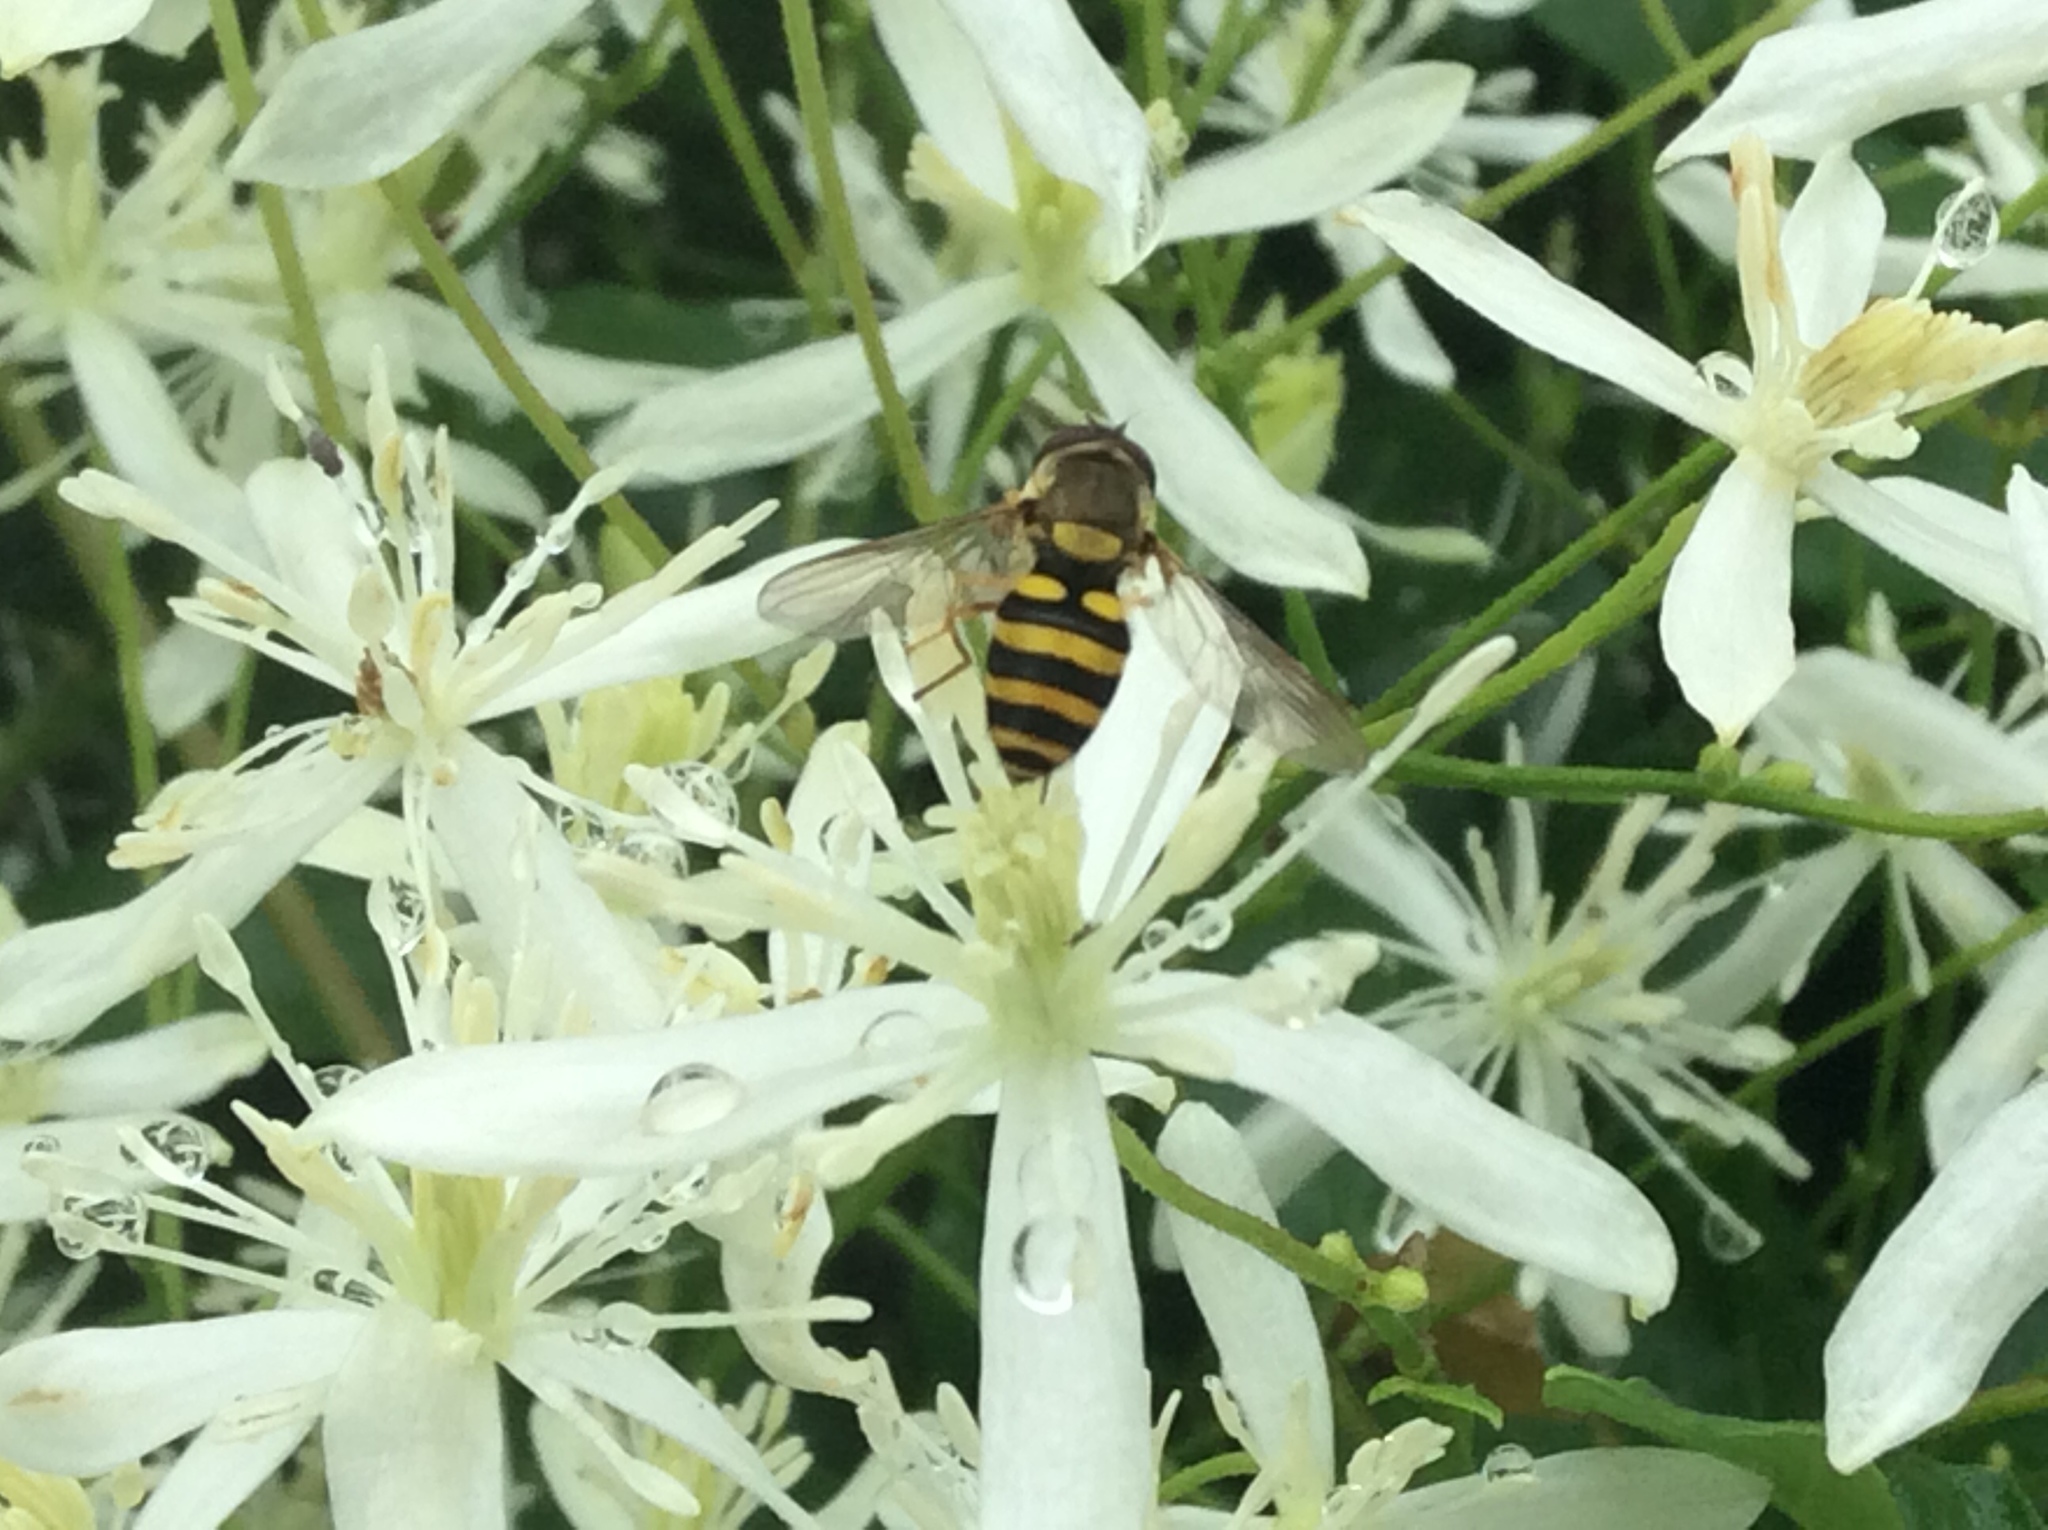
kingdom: Animalia
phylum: Arthropoda
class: Insecta
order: Diptera
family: Syrphidae
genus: Syrphus
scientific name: Syrphus
